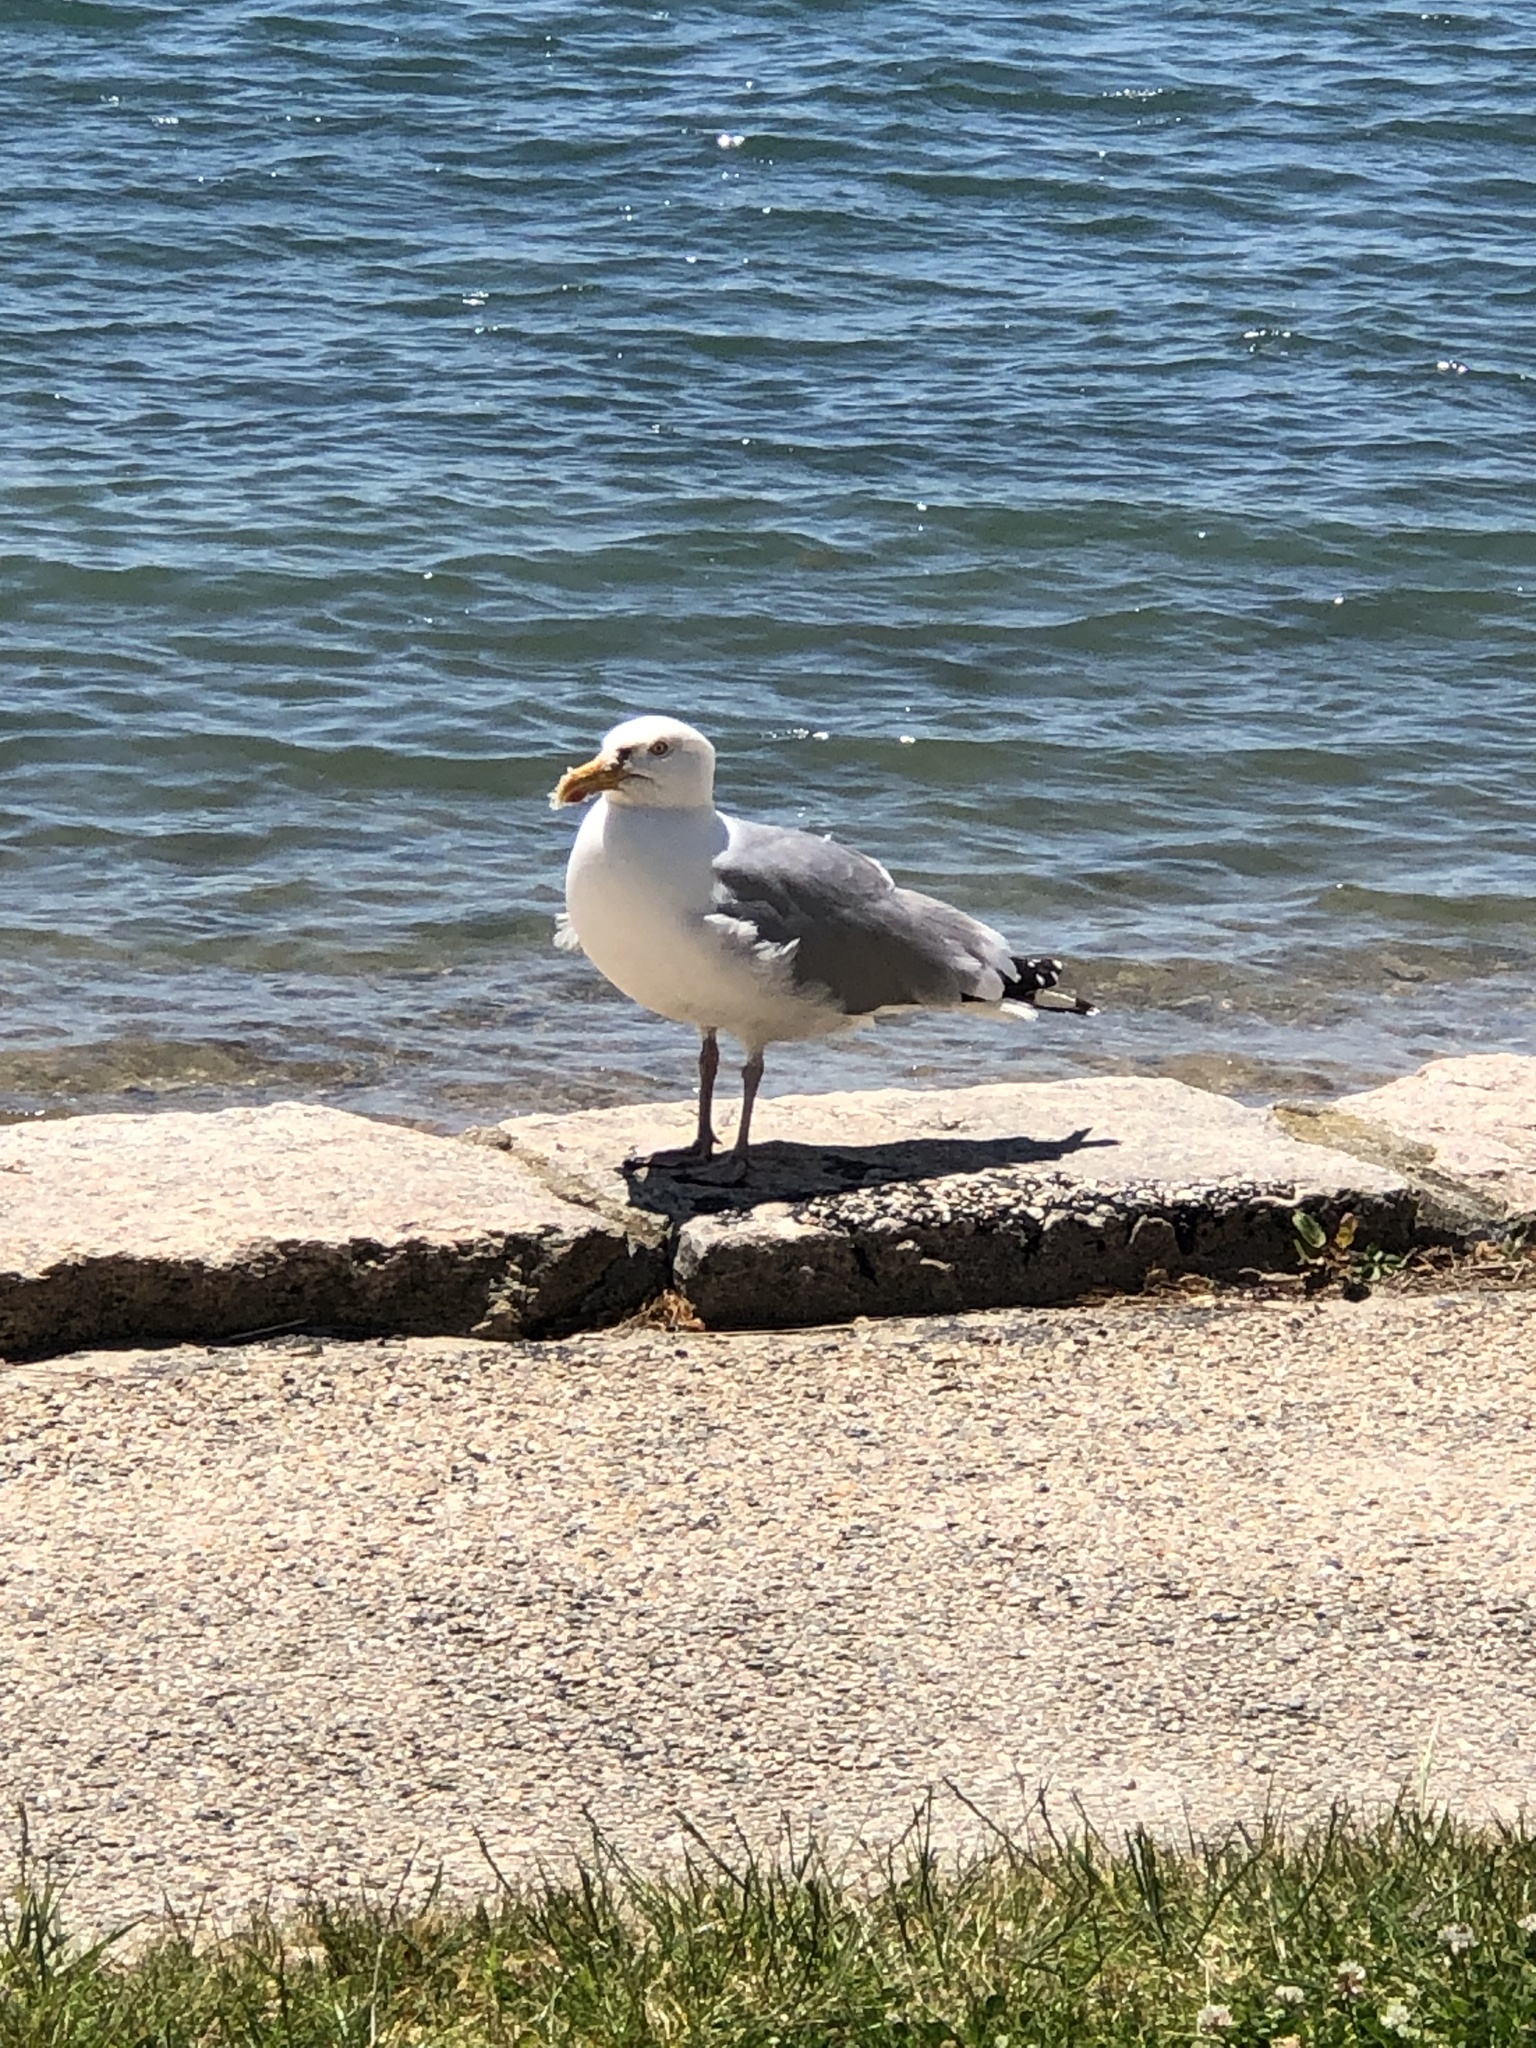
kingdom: Animalia
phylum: Chordata
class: Aves
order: Charadriiformes
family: Laridae
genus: Larus
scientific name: Larus argentatus
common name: Herring gull
